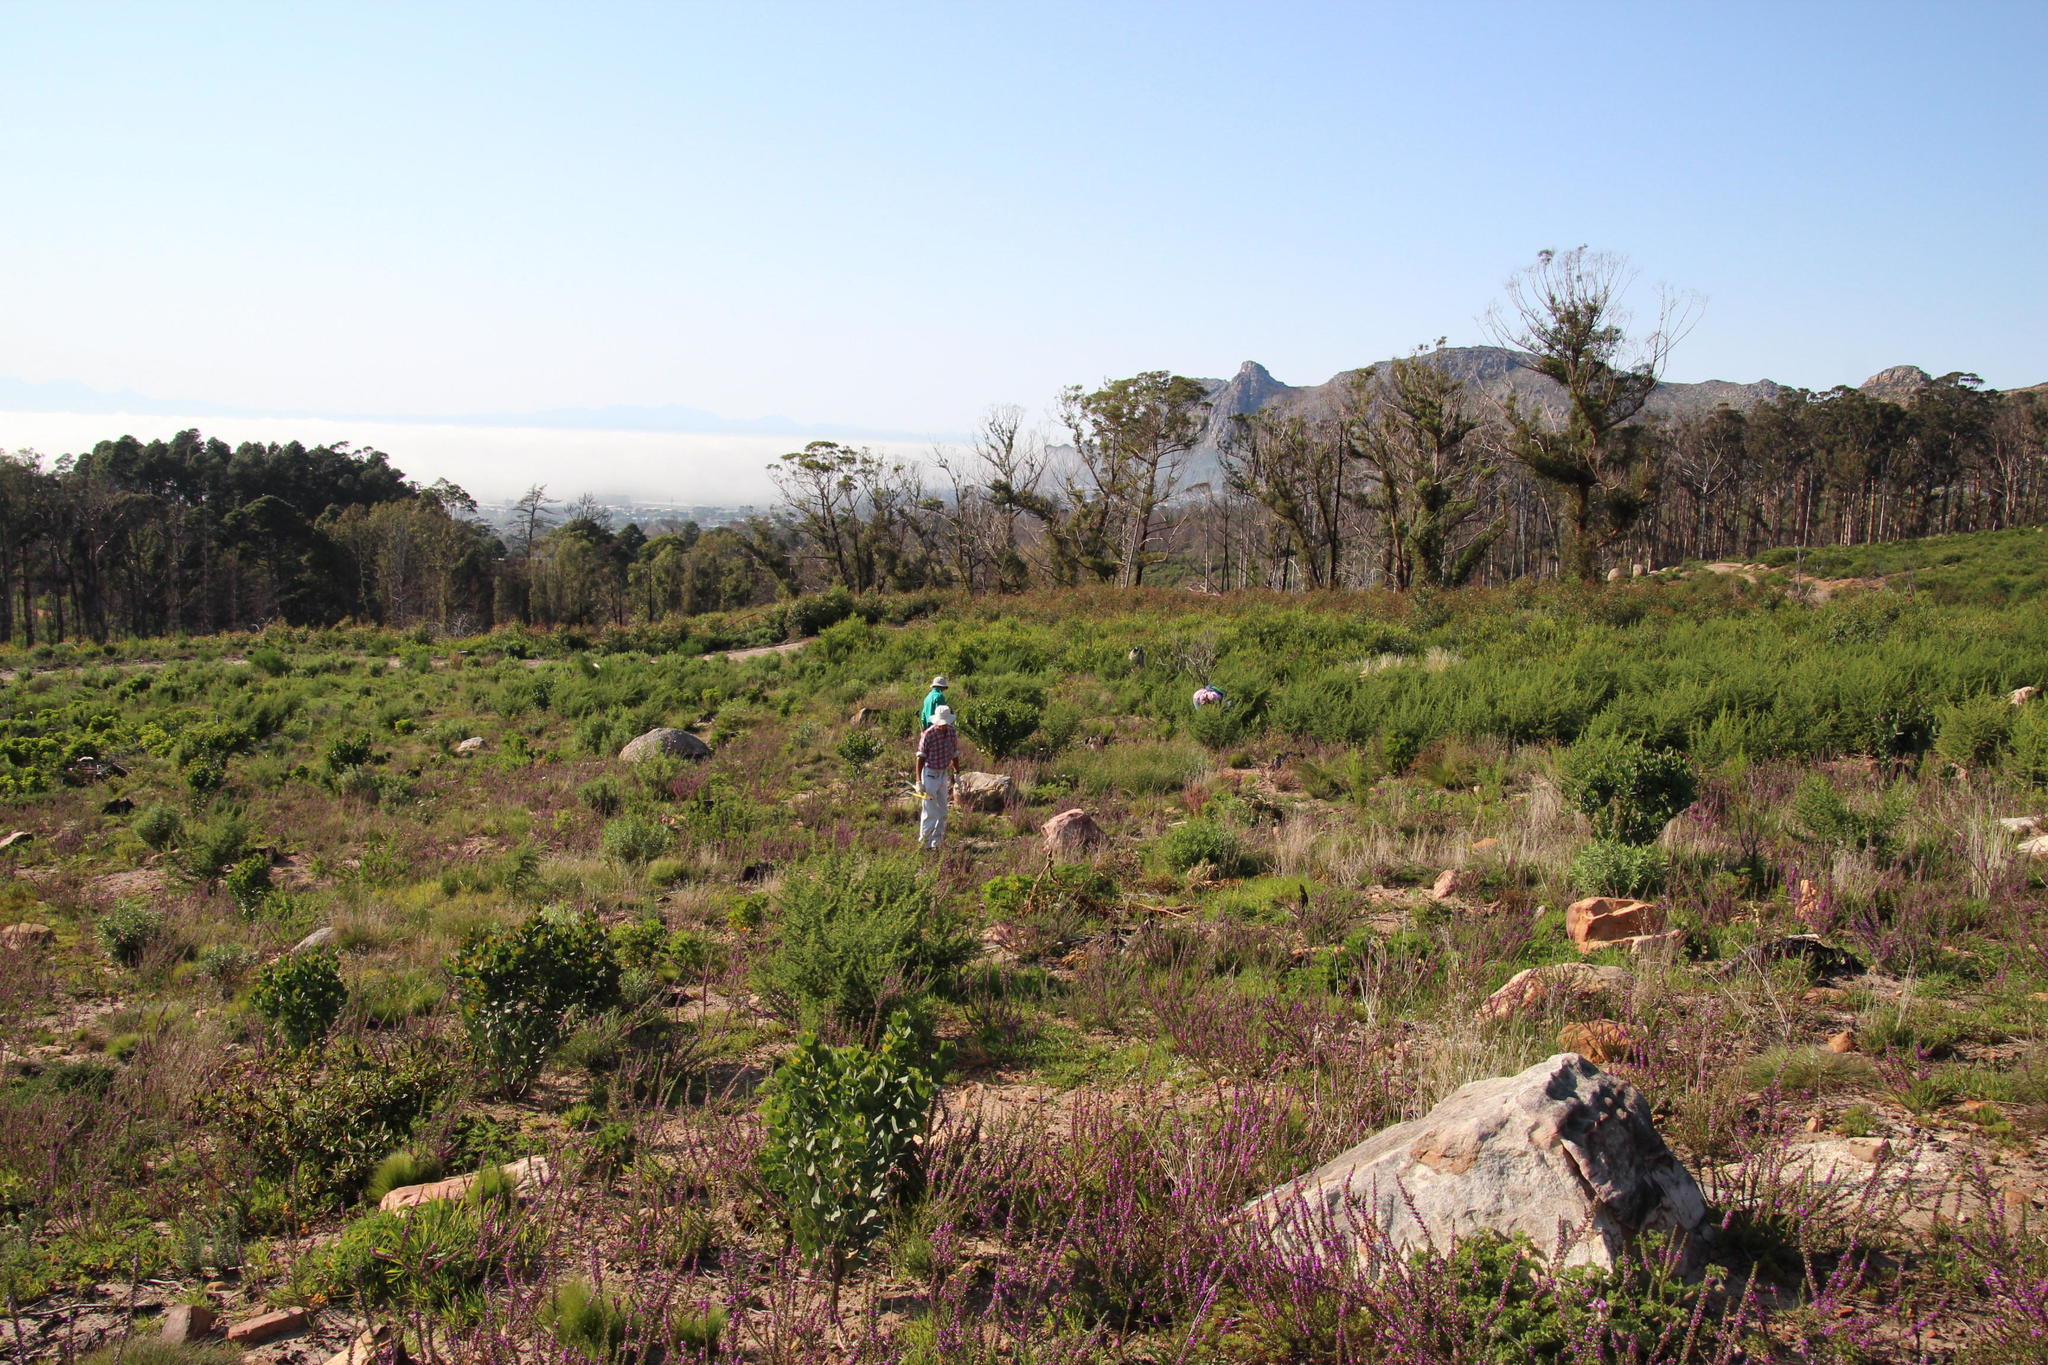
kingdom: Plantae
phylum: Tracheophyta
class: Magnoliopsida
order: Fabales
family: Polygalaceae
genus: Muraltia
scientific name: Muraltia heisteria
